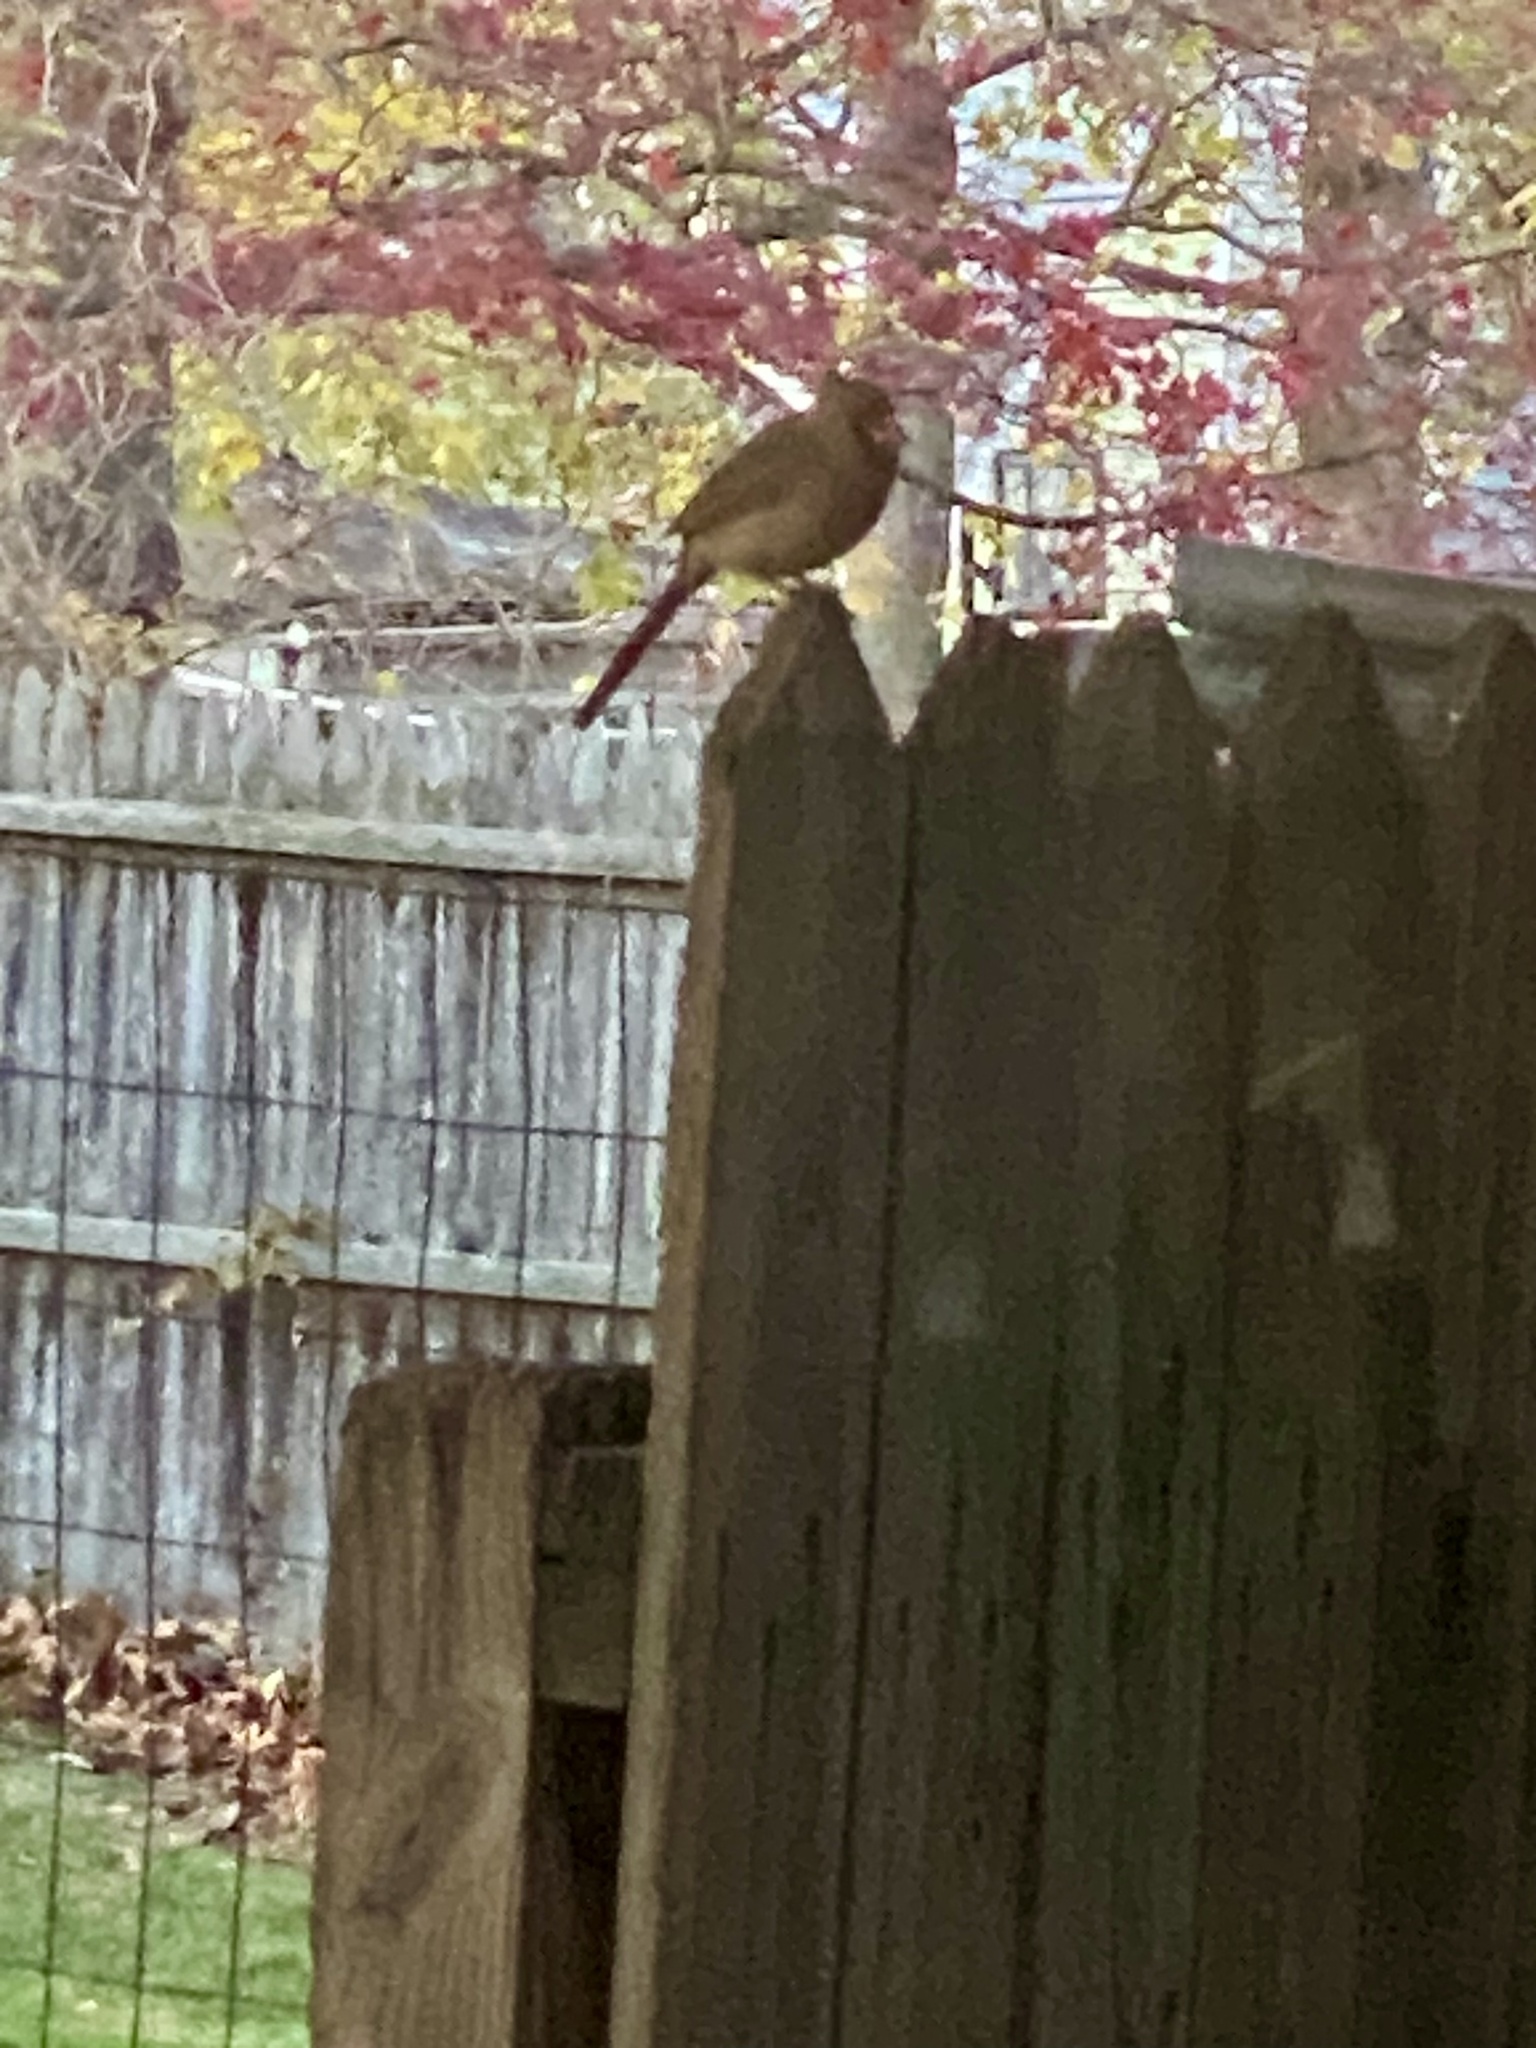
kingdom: Animalia
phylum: Chordata
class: Aves
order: Passeriformes
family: Cardinalidae
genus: Cardinalis
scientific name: Cardinalis cardinalis
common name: Northern cardinal
